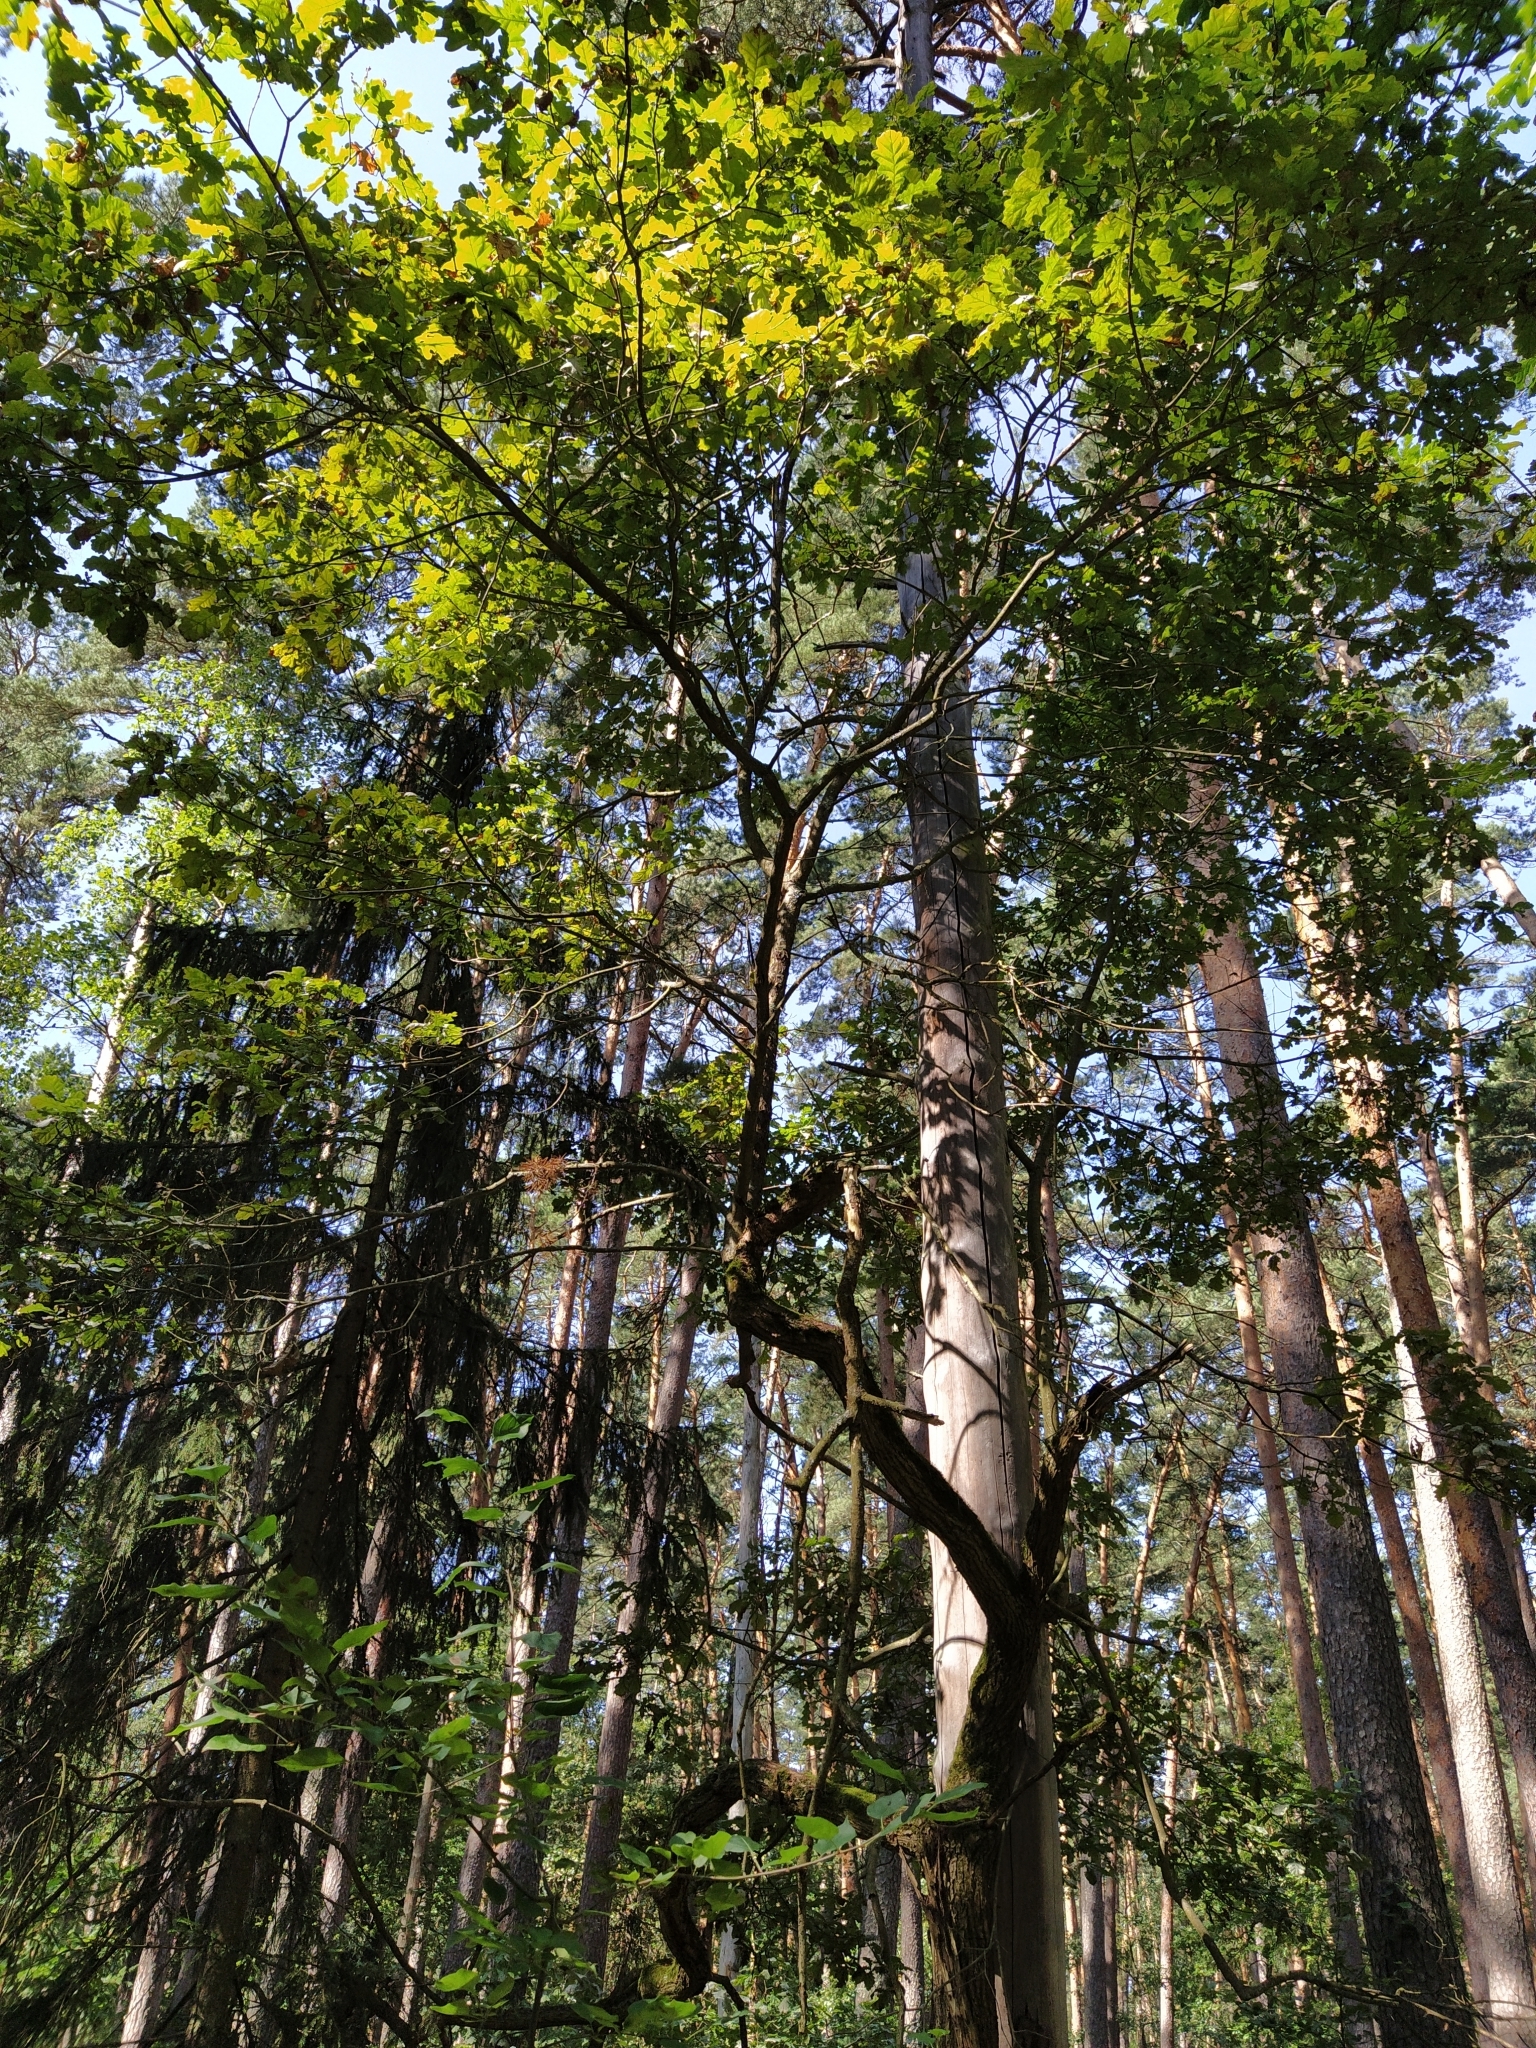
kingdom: Plantae
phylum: Tracheophyta
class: Magnoliopsida
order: Fagales
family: Fagaceae
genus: Quercus
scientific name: Quercus robur
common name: Pedunculate oak
